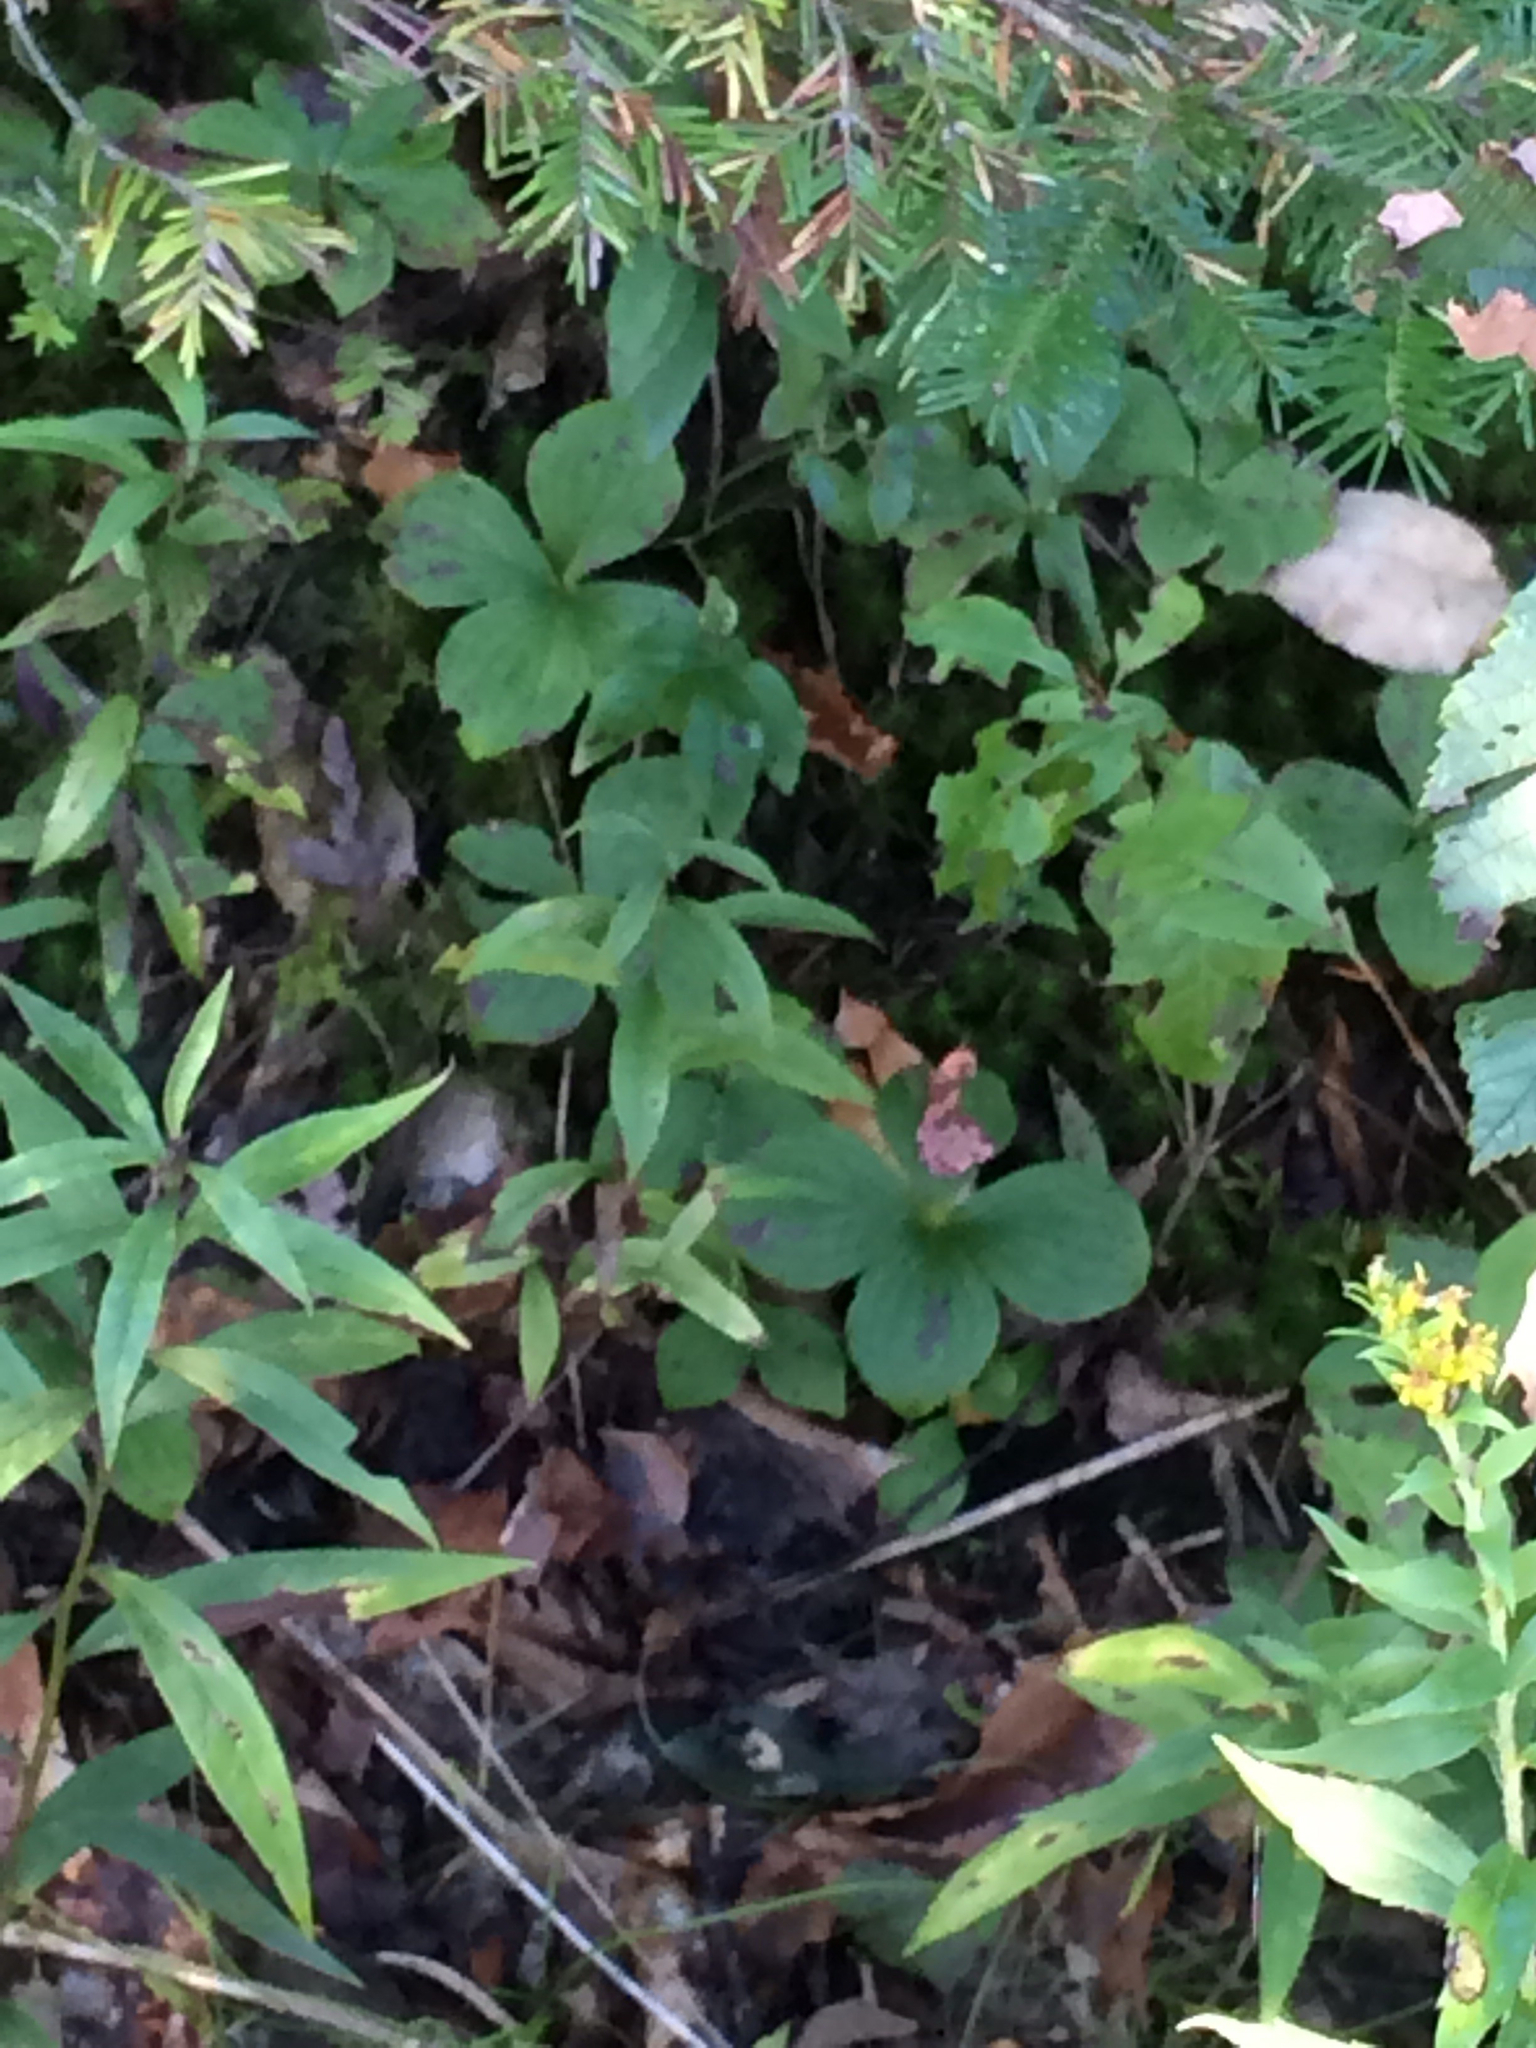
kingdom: Plantae
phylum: Tracheophyta
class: Magnoliopsida
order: Cornales
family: Cornaceae
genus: Cornus
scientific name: Cornus canadensis
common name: Creeping dogwood
